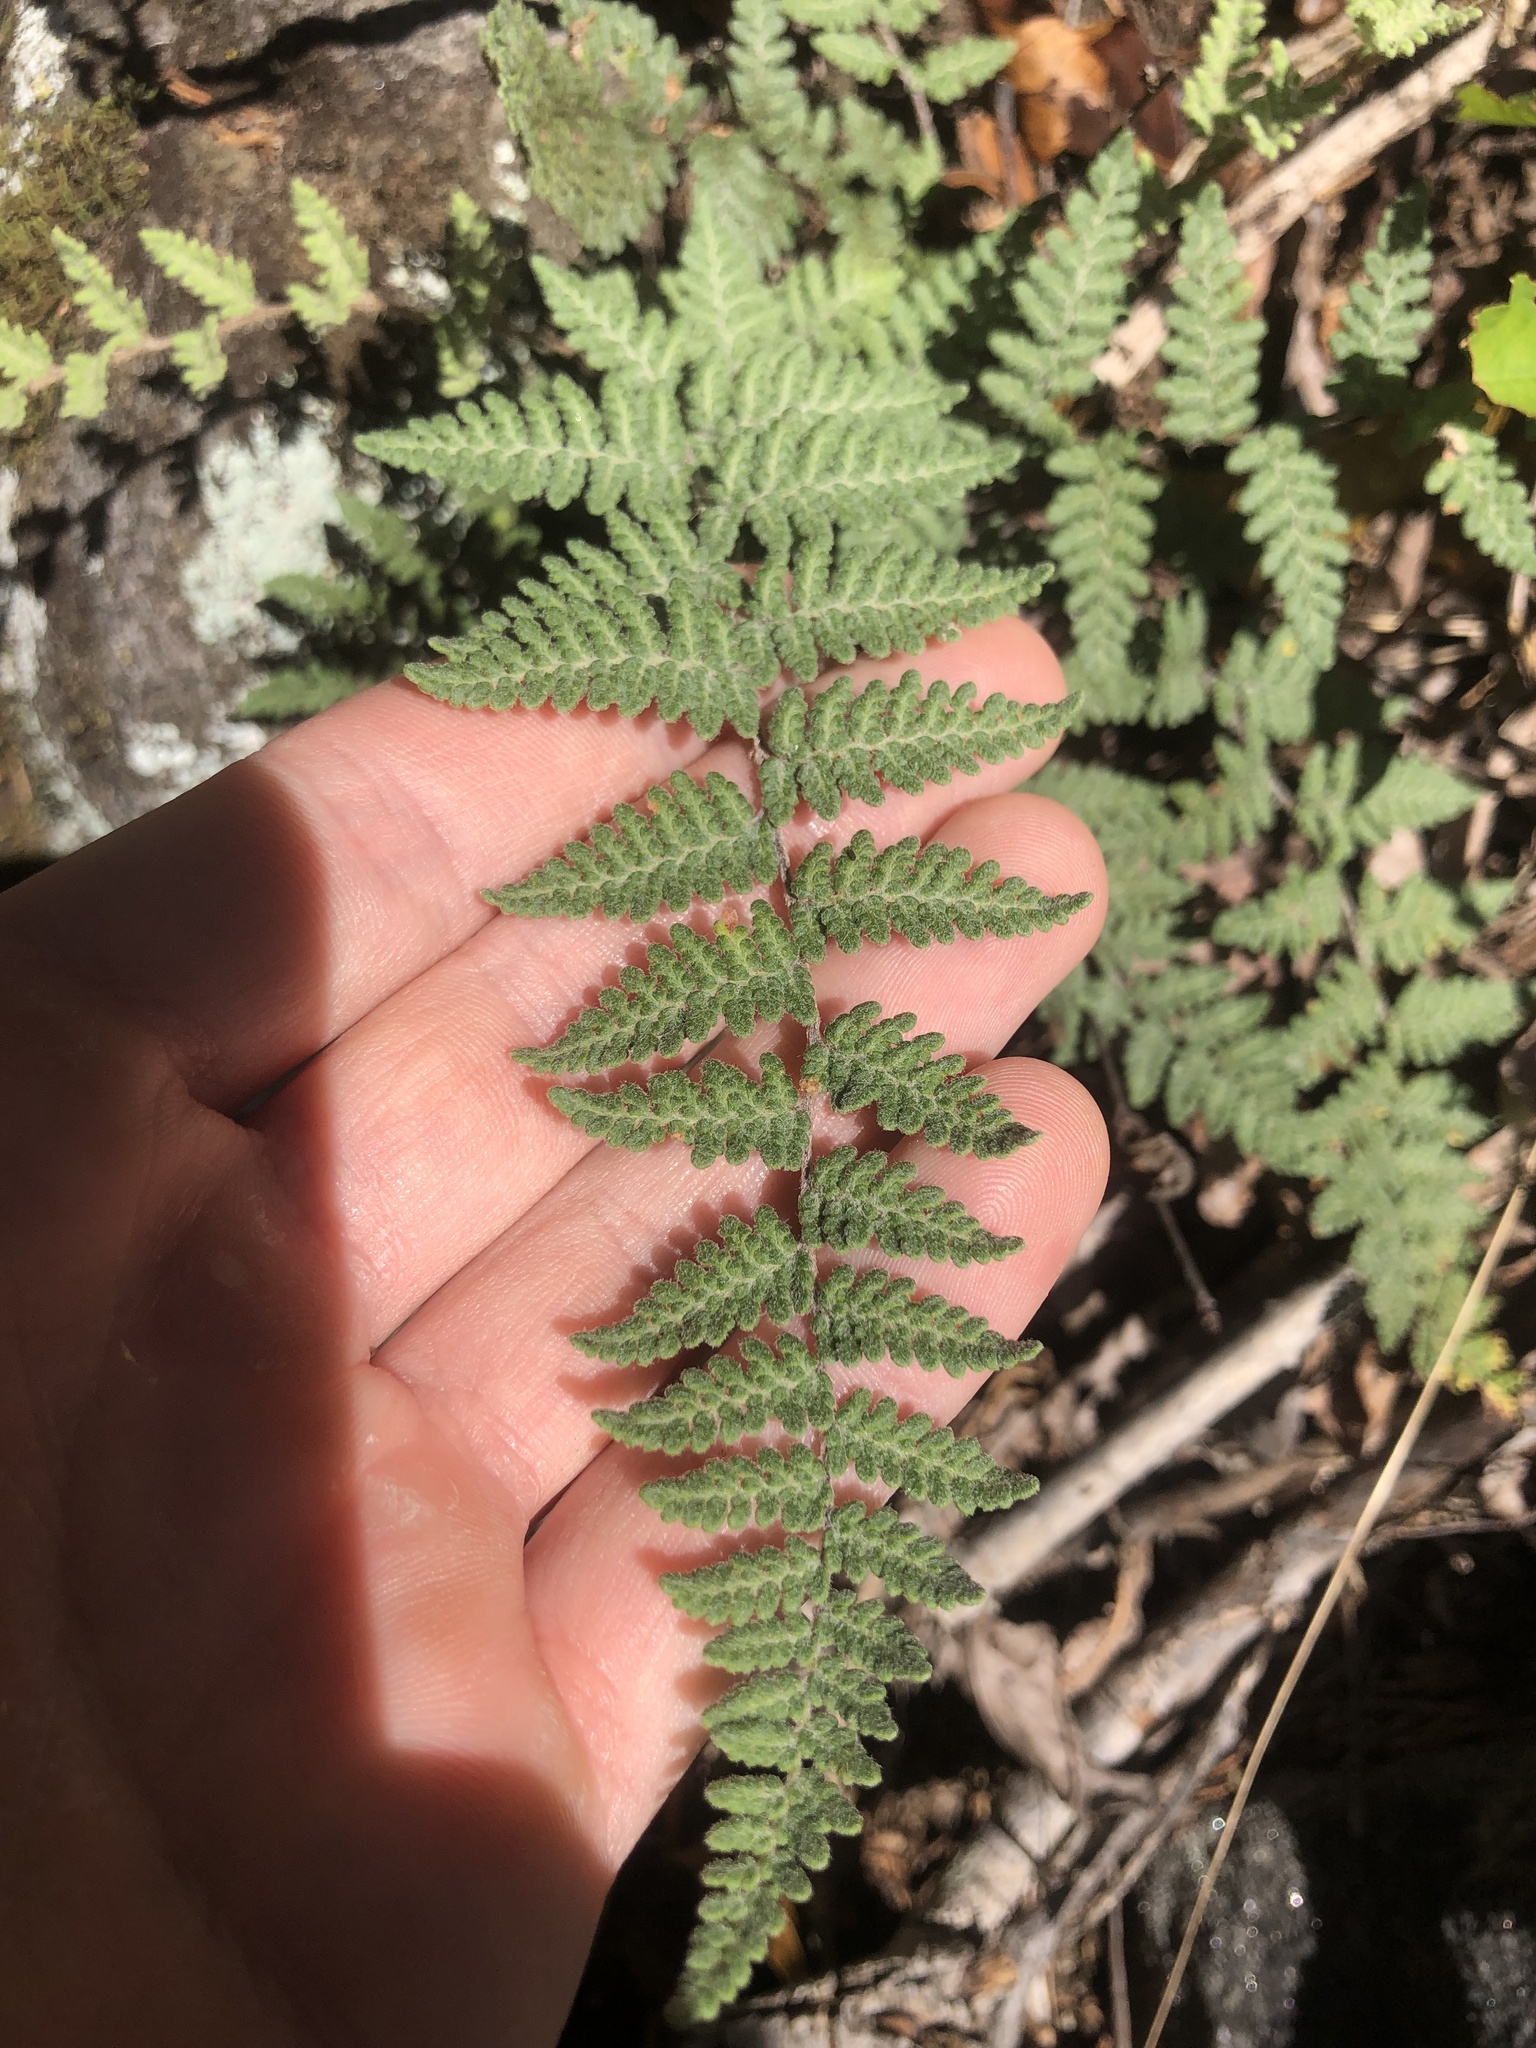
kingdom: Plantae
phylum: Tracheophyta
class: Polypodiopsida
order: Polypodiales
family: Pteridaceae
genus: Myriopteris
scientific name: Myriopteris tomentosa
